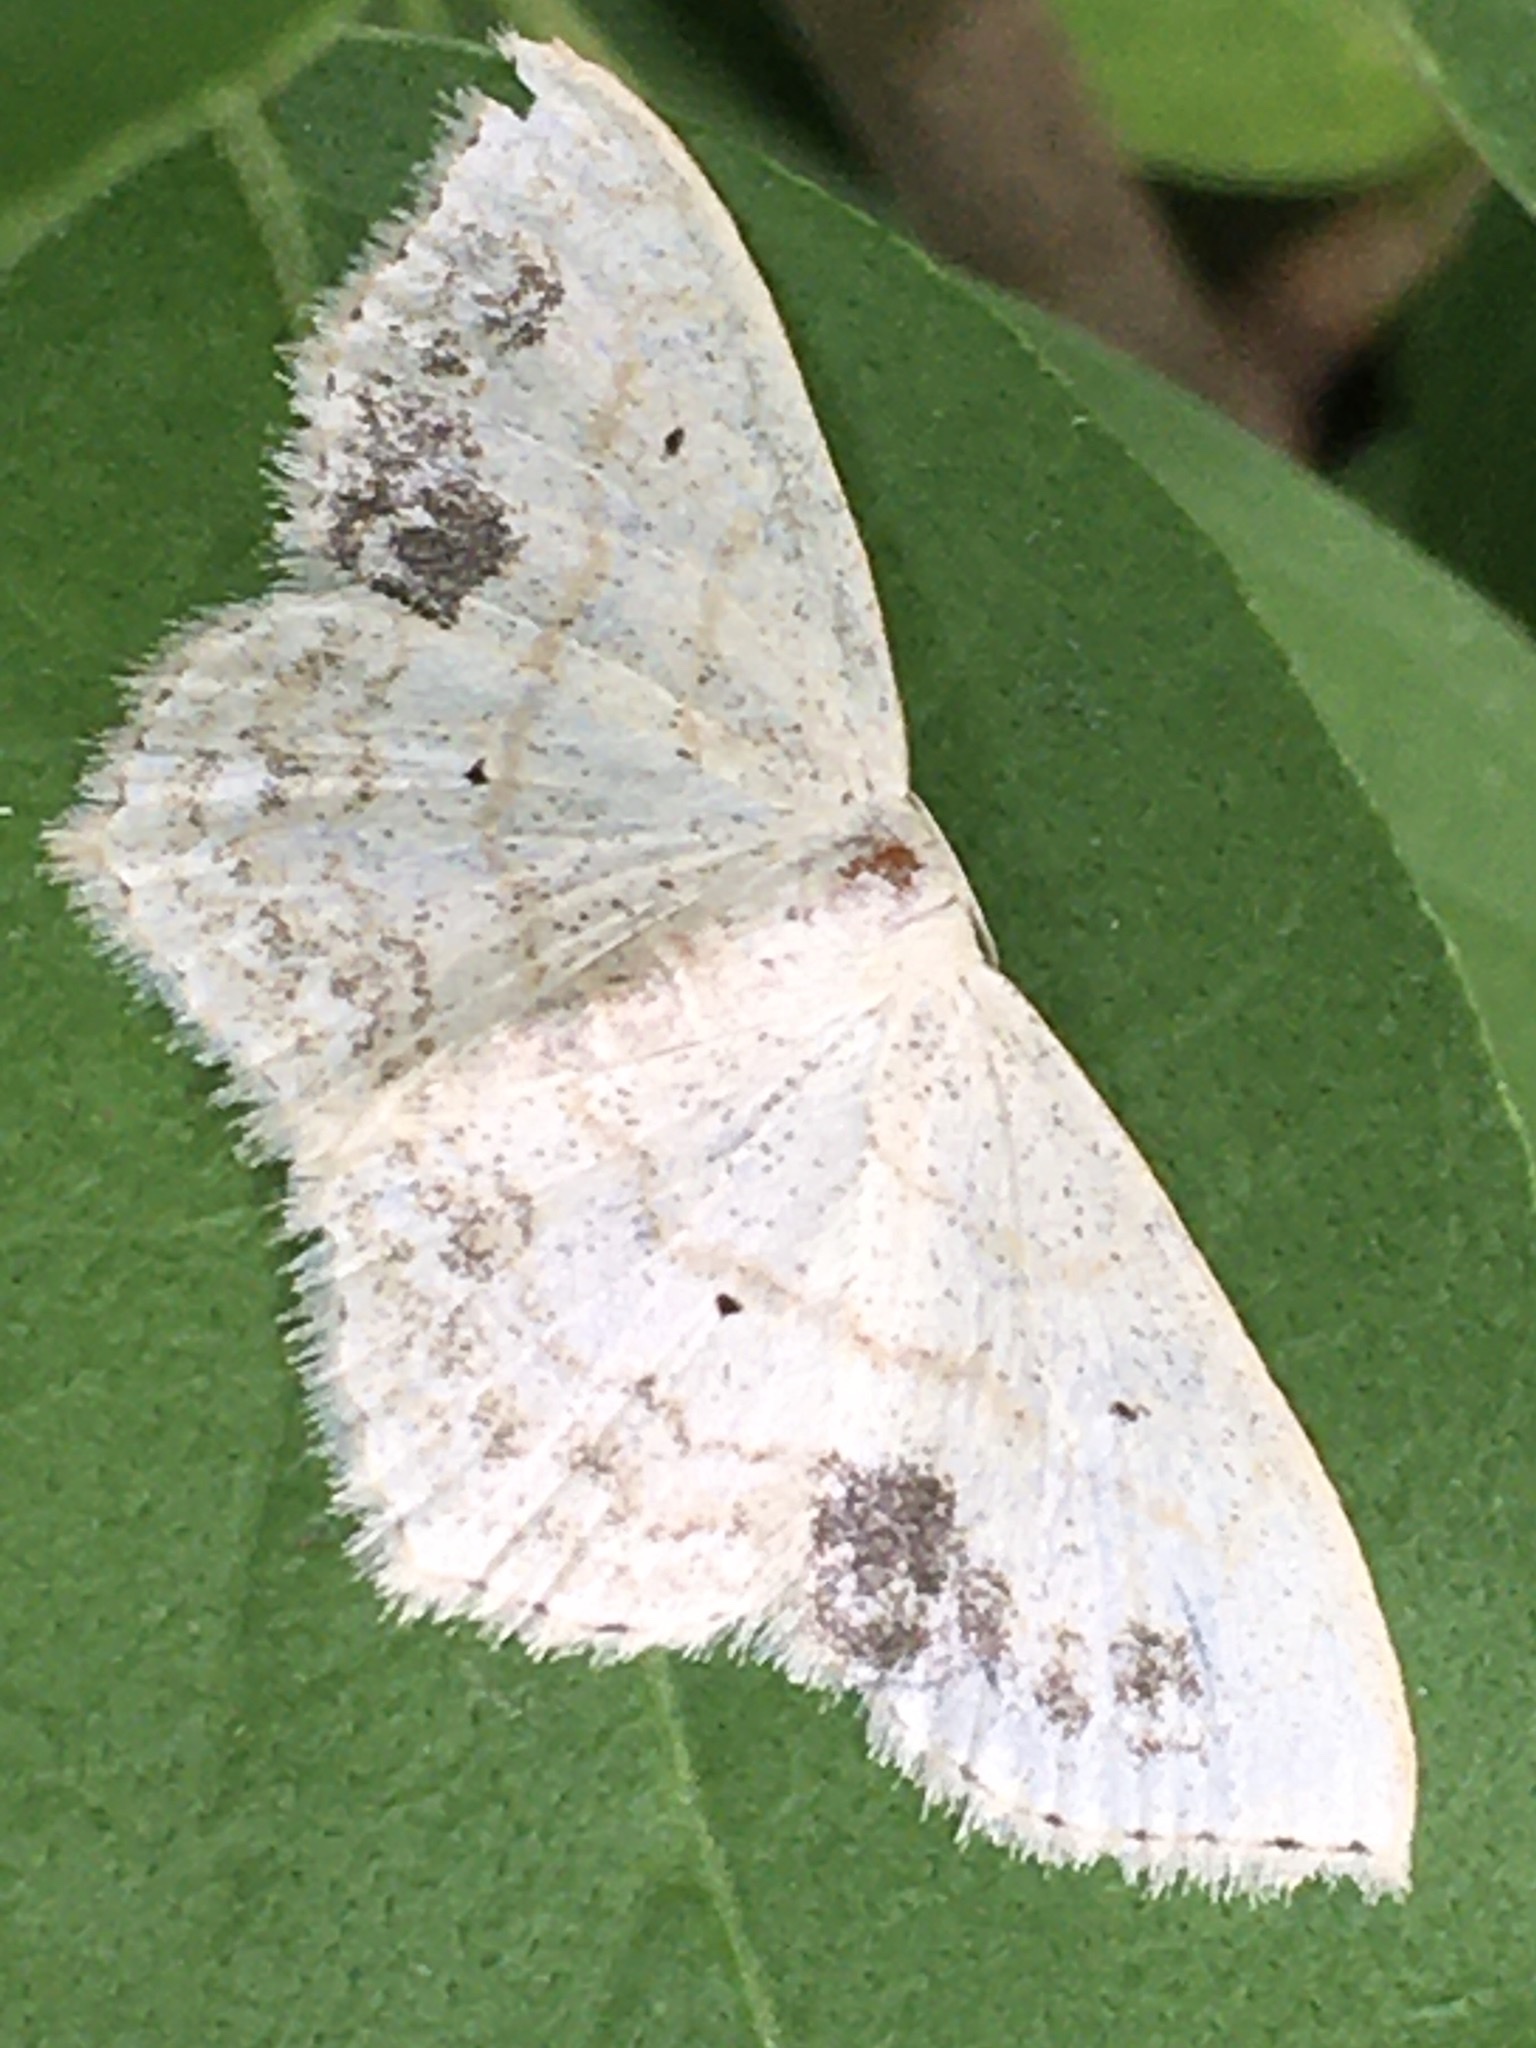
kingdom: Animalia
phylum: Arthropoda
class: Insecta
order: Lepidoptera
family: Geometridae
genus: Scopula
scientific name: Scopula limboundata
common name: Large lace border
